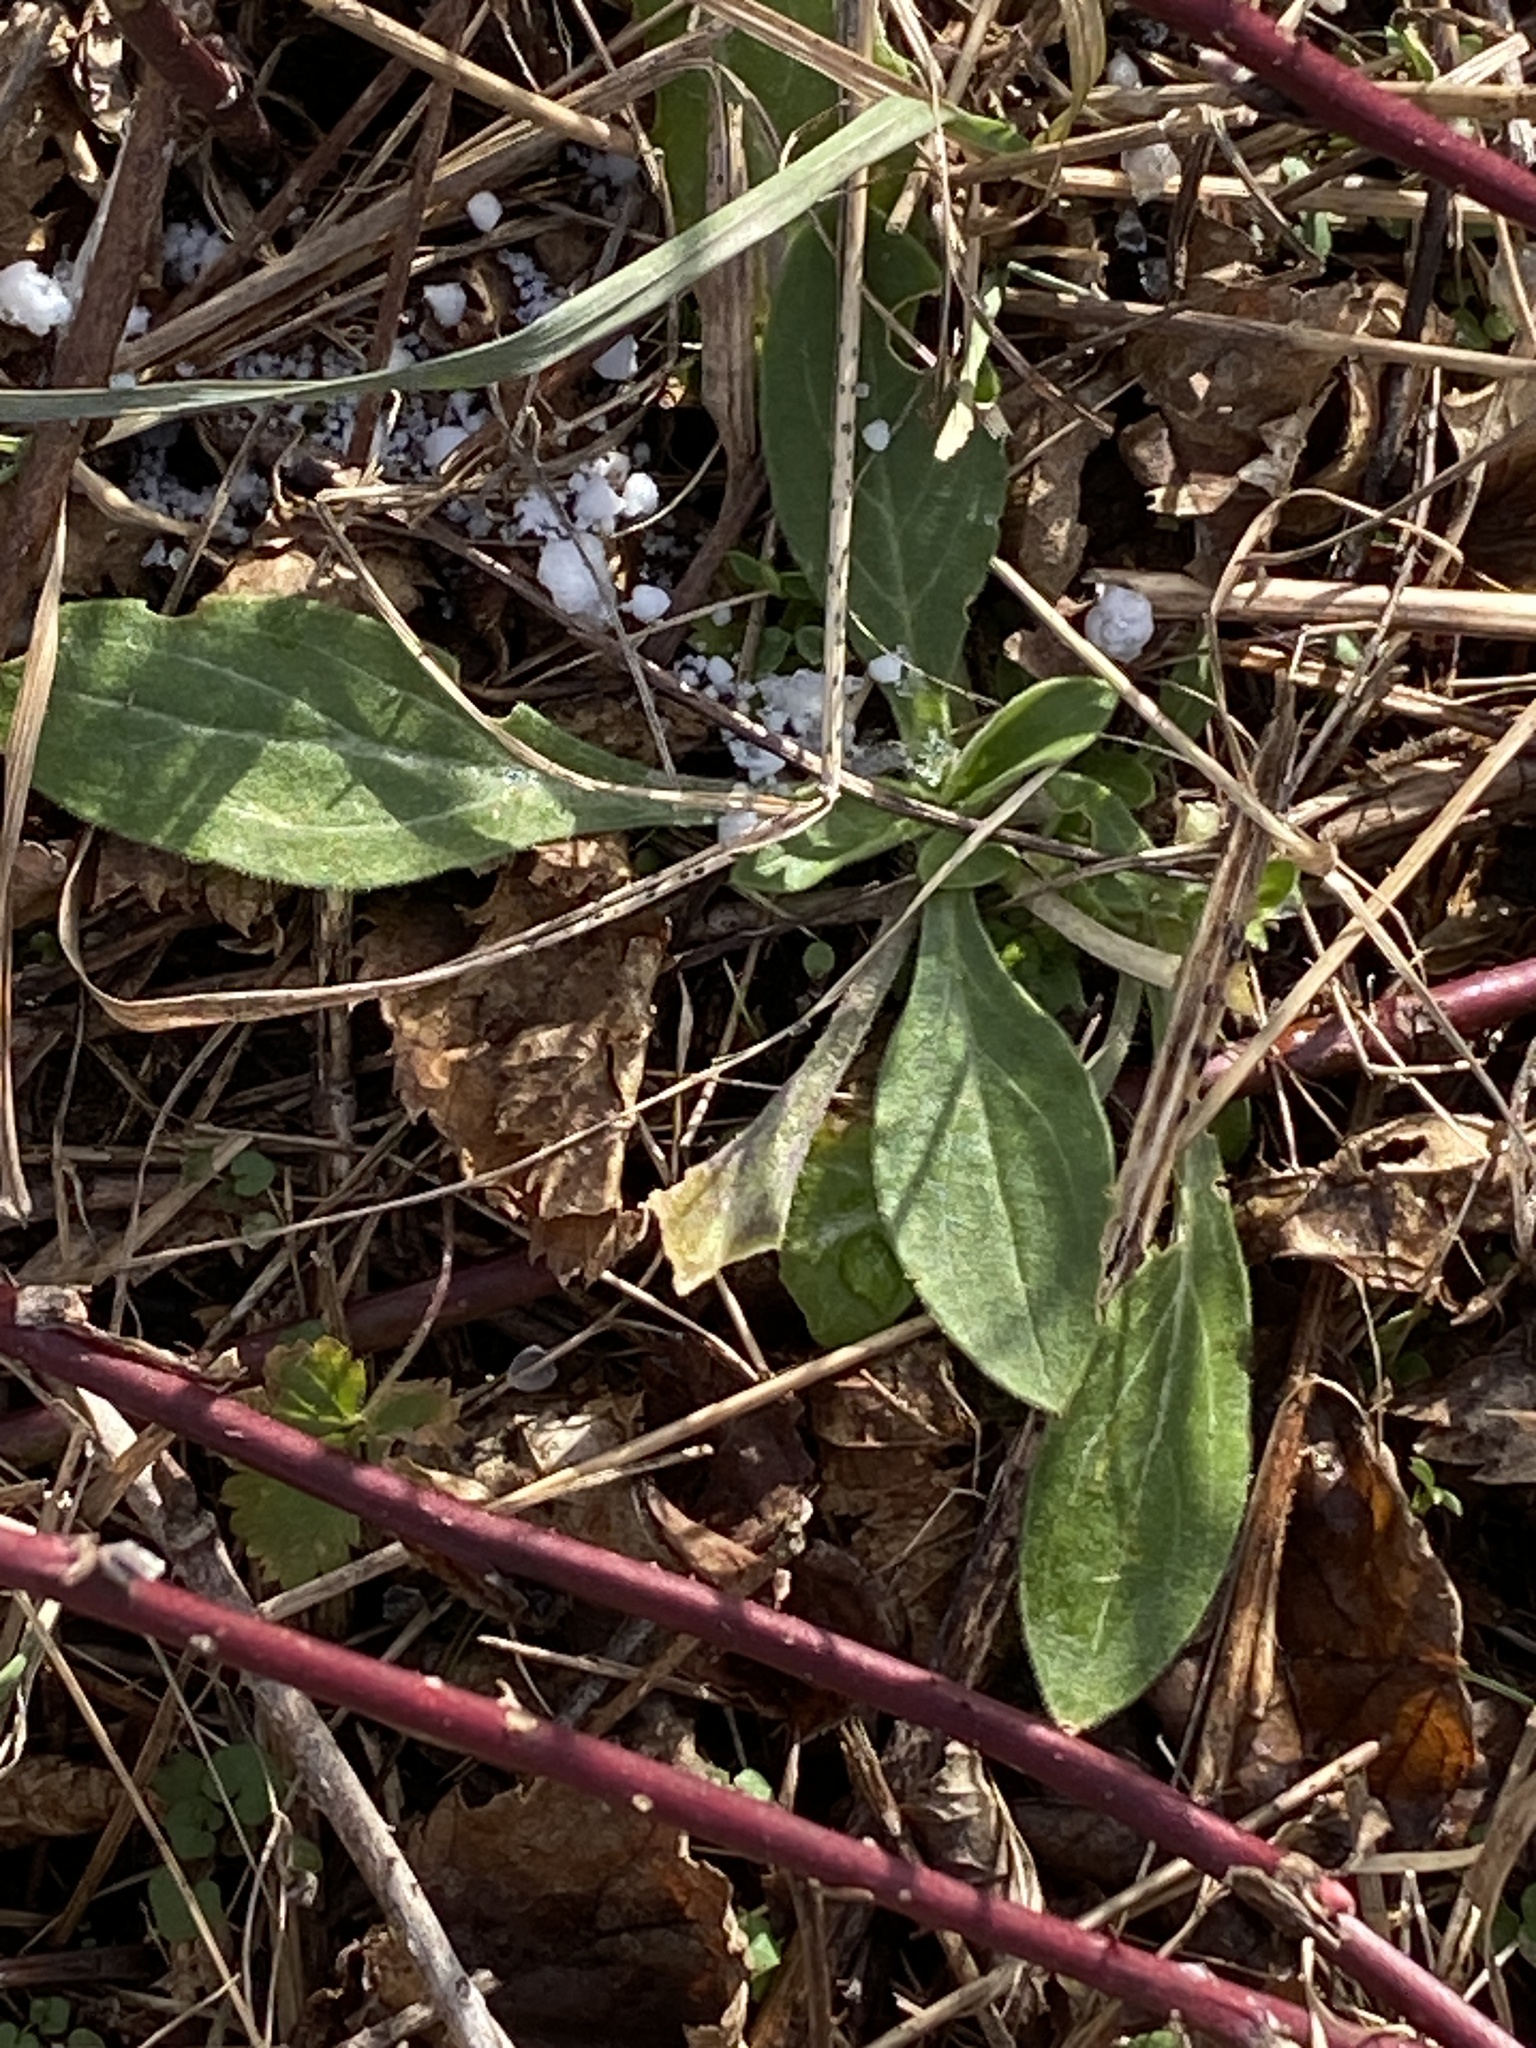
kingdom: Plantae
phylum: Tracheophyta
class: Magnoliopsida
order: Caryophyllales
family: Caryophyllaceae
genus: Silene
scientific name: Silene latifolia
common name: White campion
